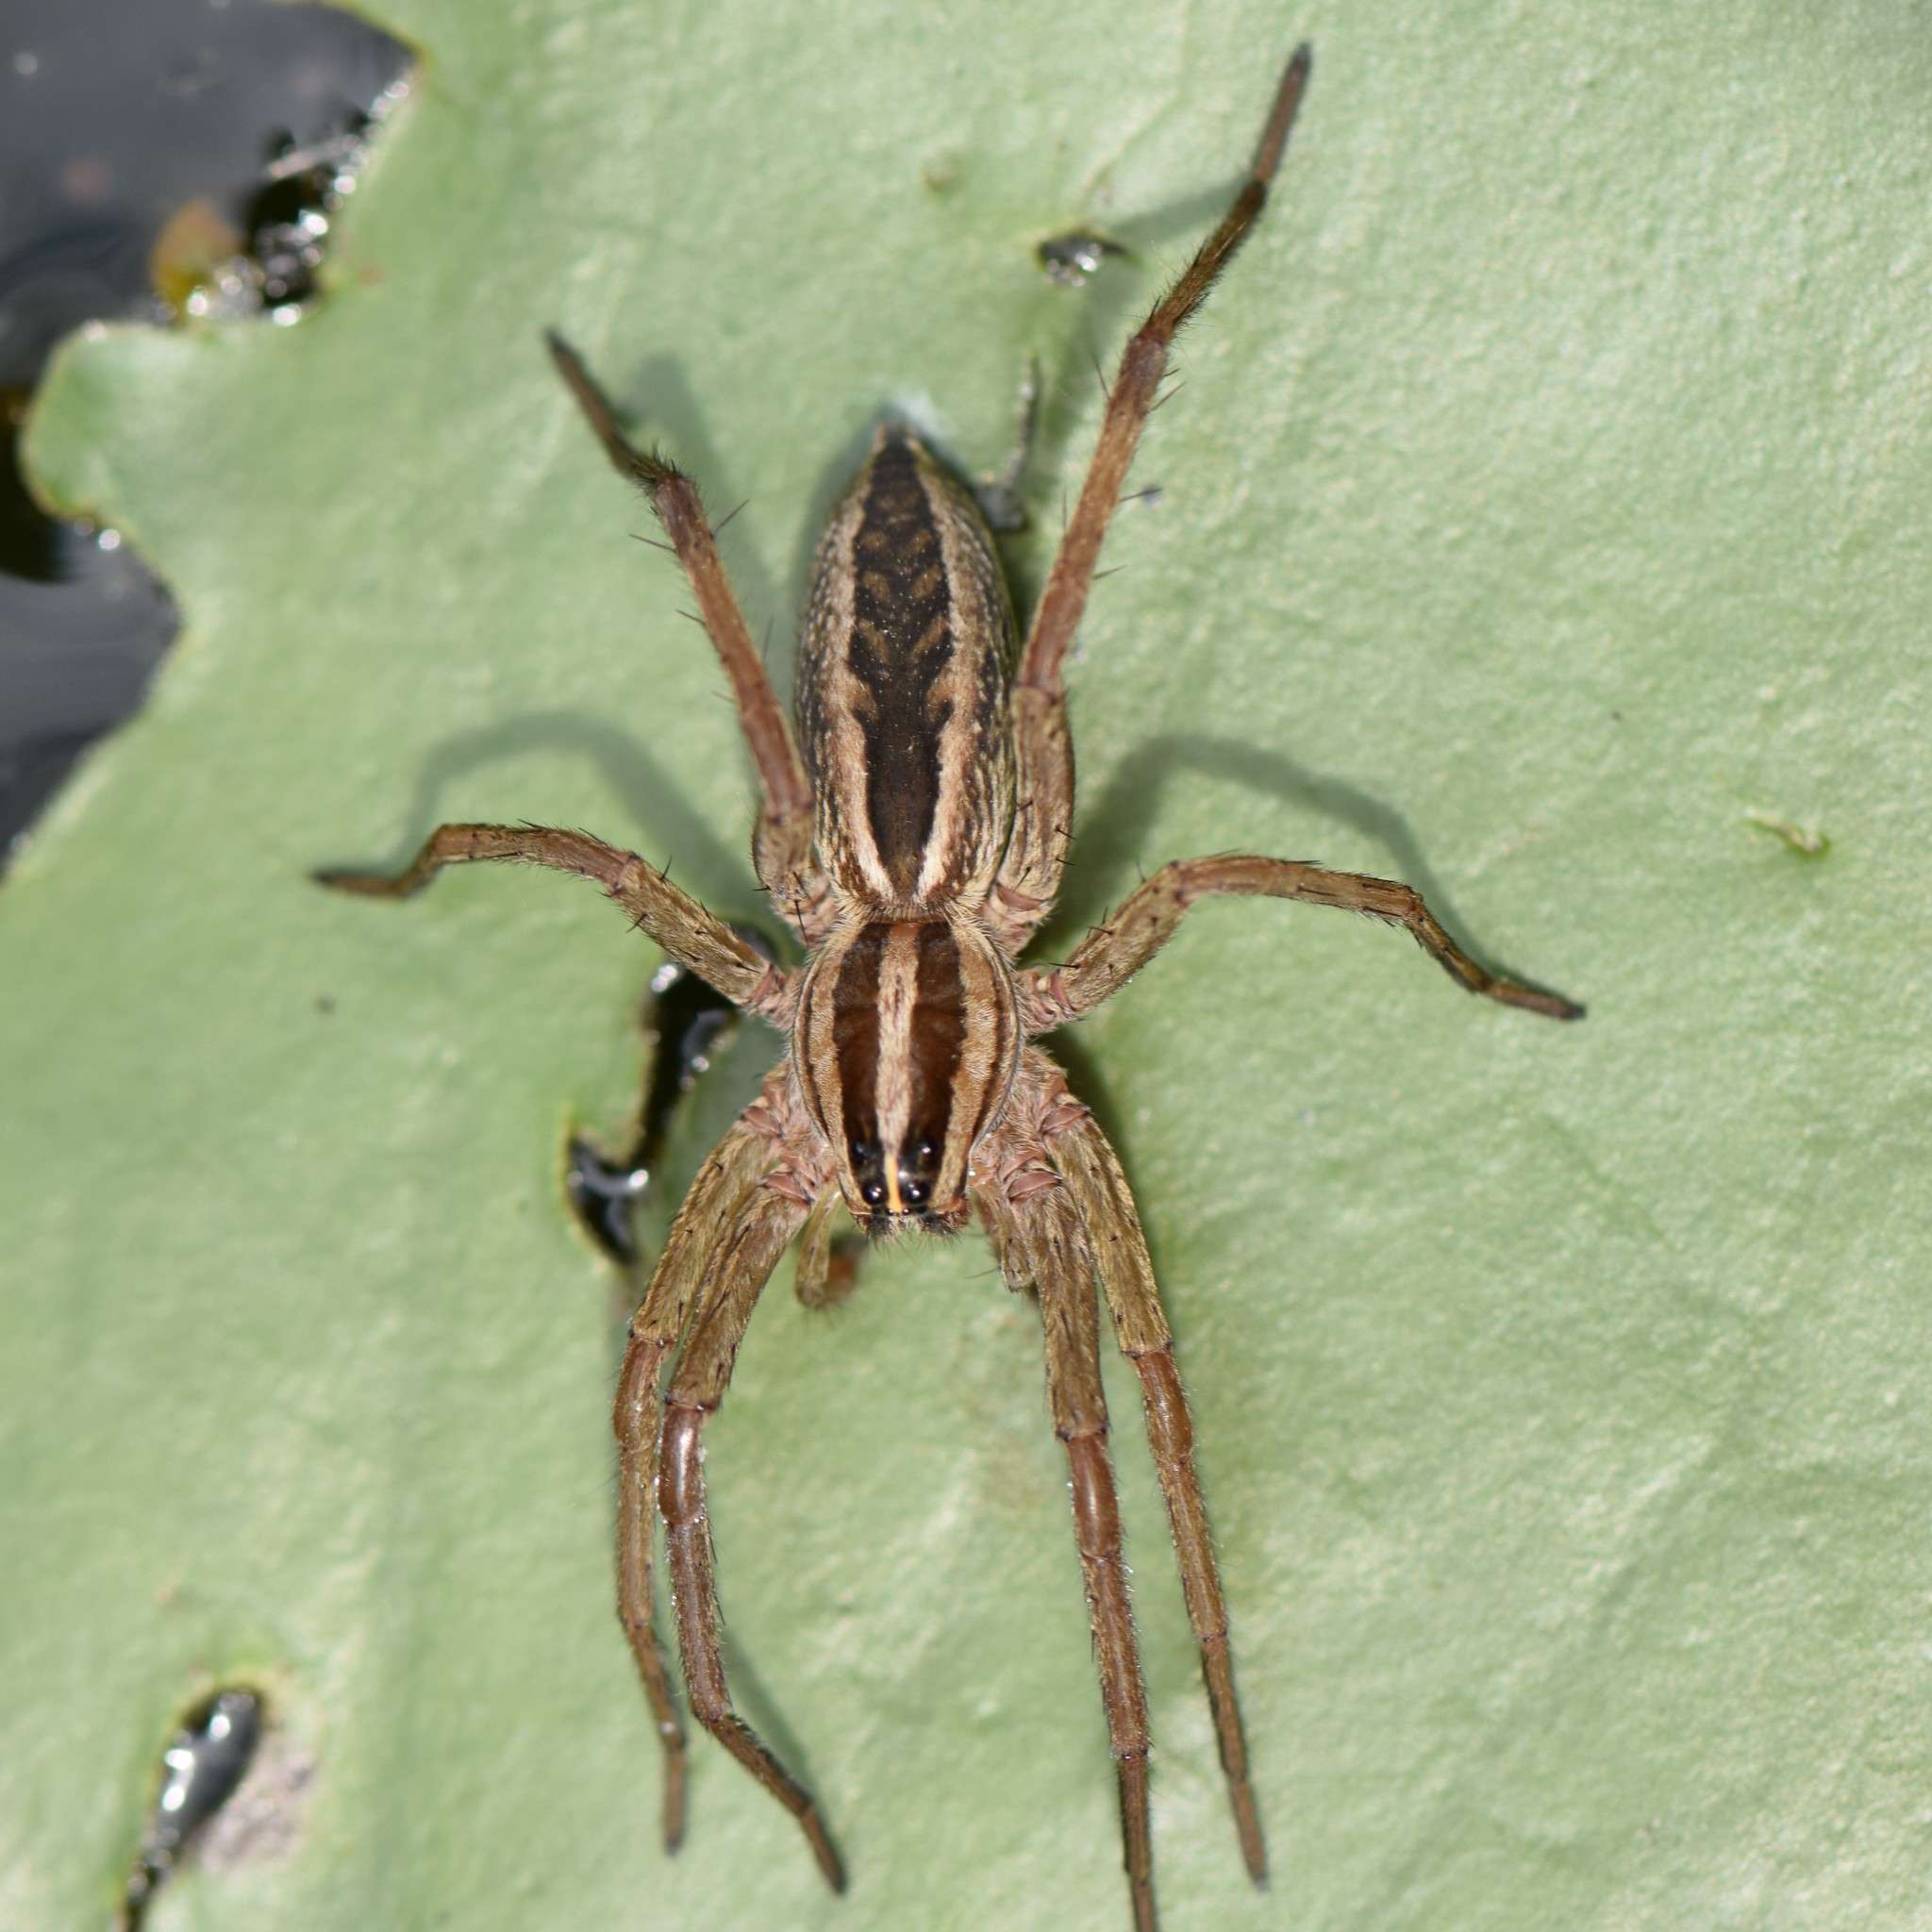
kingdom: Animalia
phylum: Arthropoda
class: Arachnida
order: Araneae
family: Lycosidae
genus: Rabidosa
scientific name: Rabidosa rabida
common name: Rabid wolf spider
